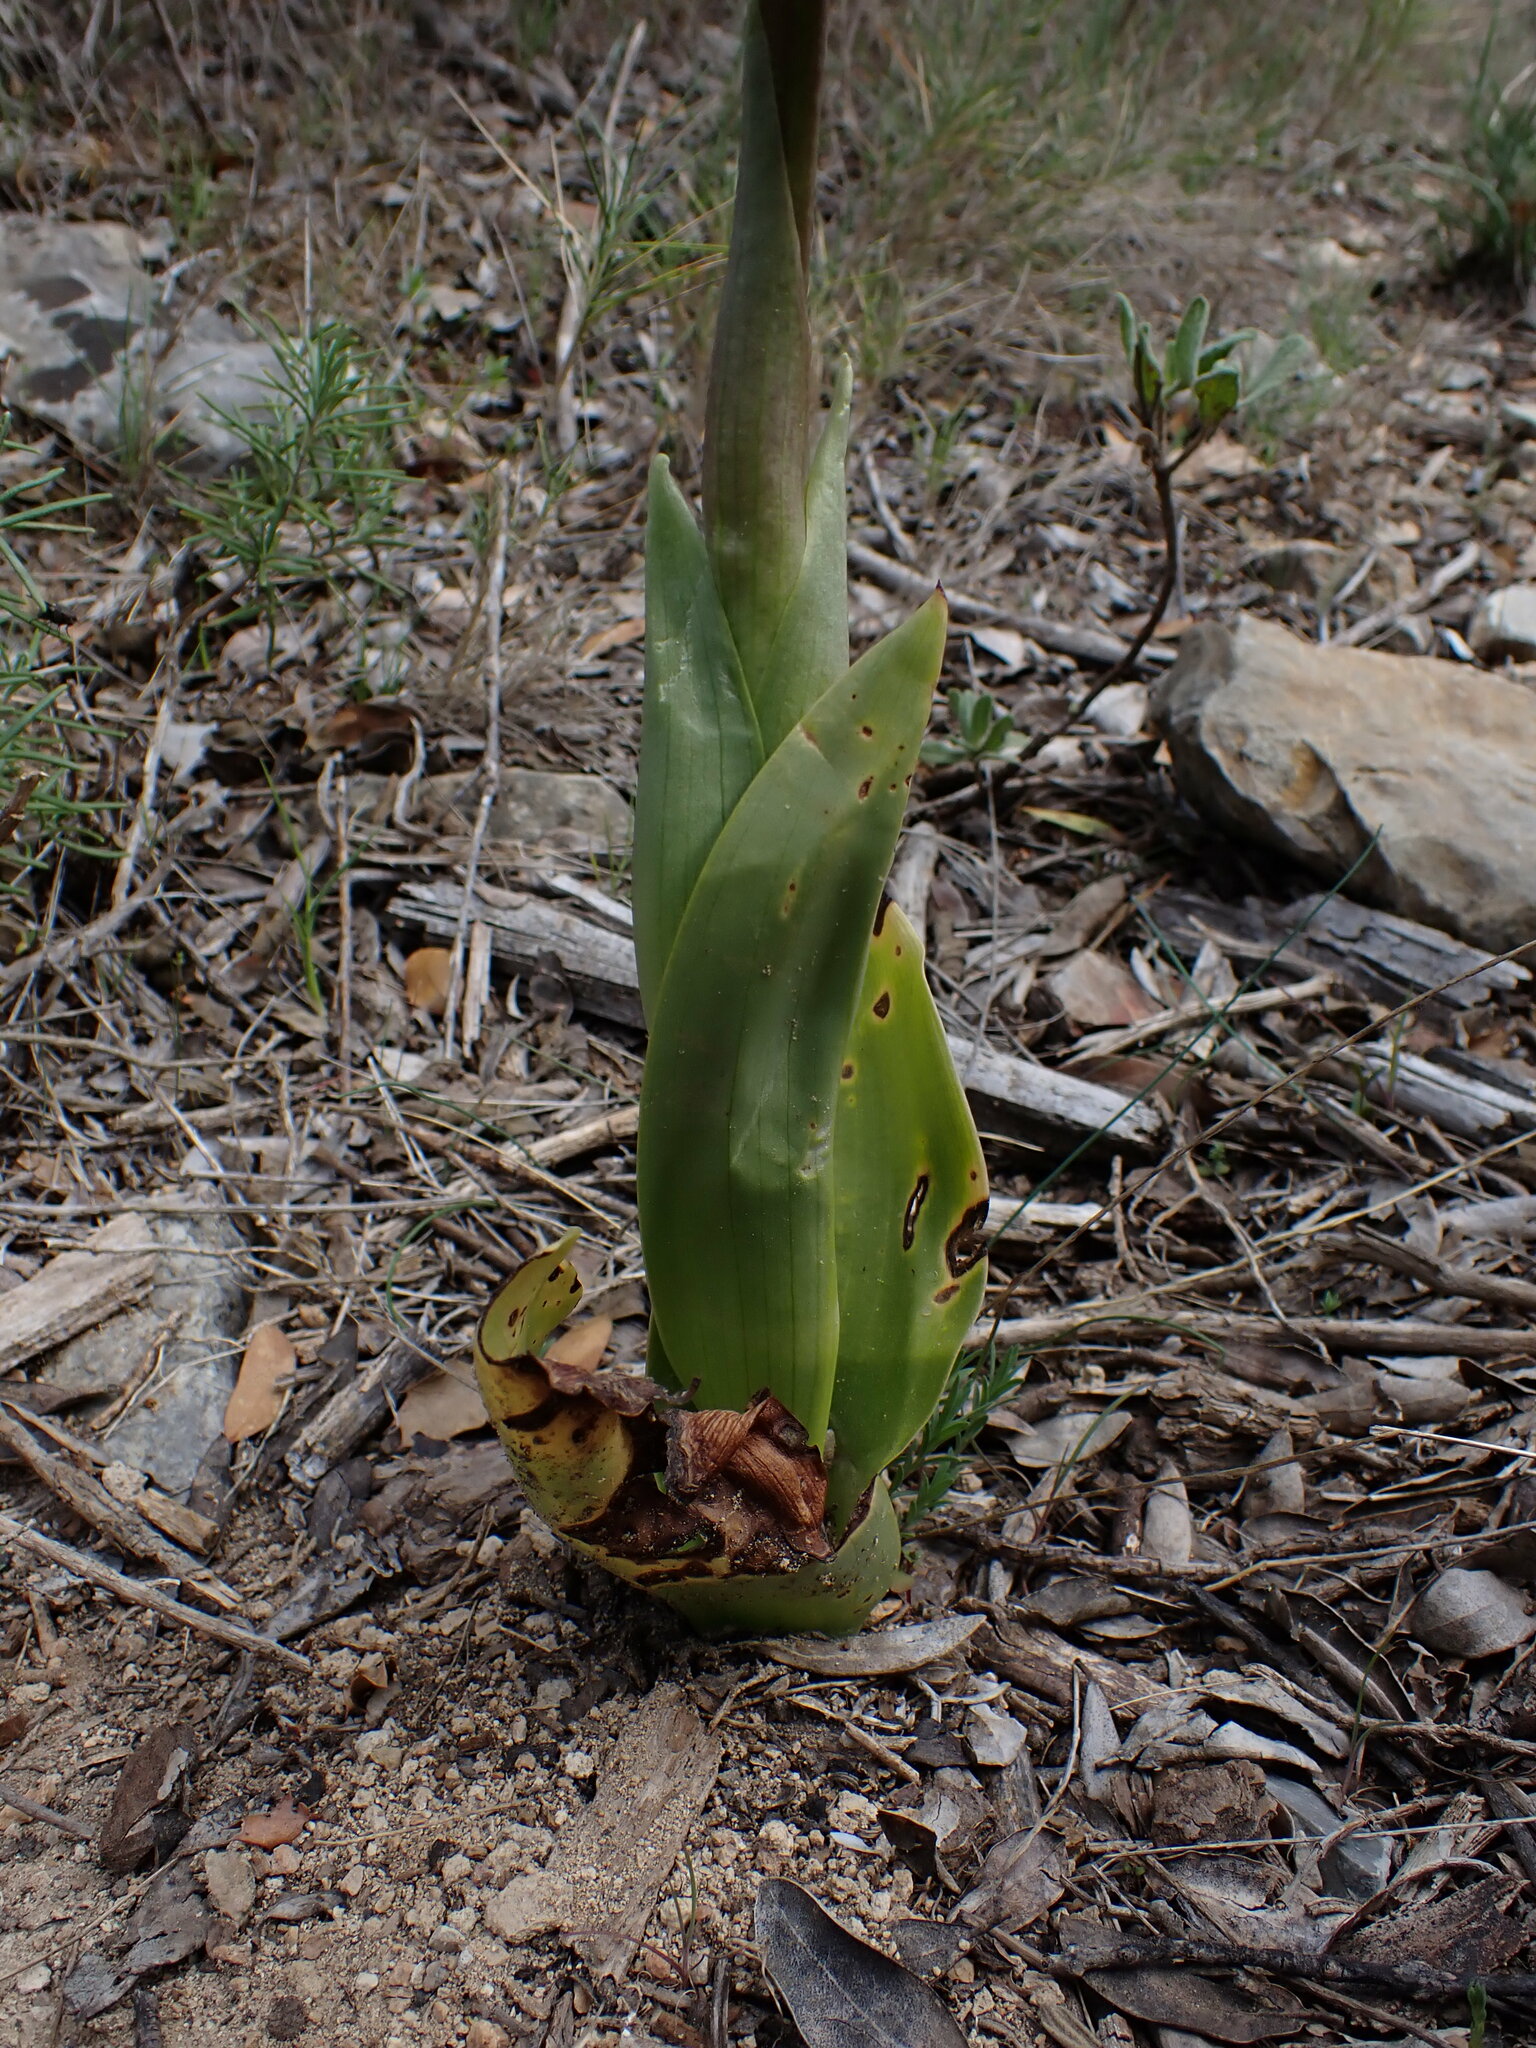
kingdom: Plantae
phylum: Tracheophyta
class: Liliopsida
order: Asparagales
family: Orchidaceae
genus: Himantoglossum
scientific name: Himantoglossum robertianum
